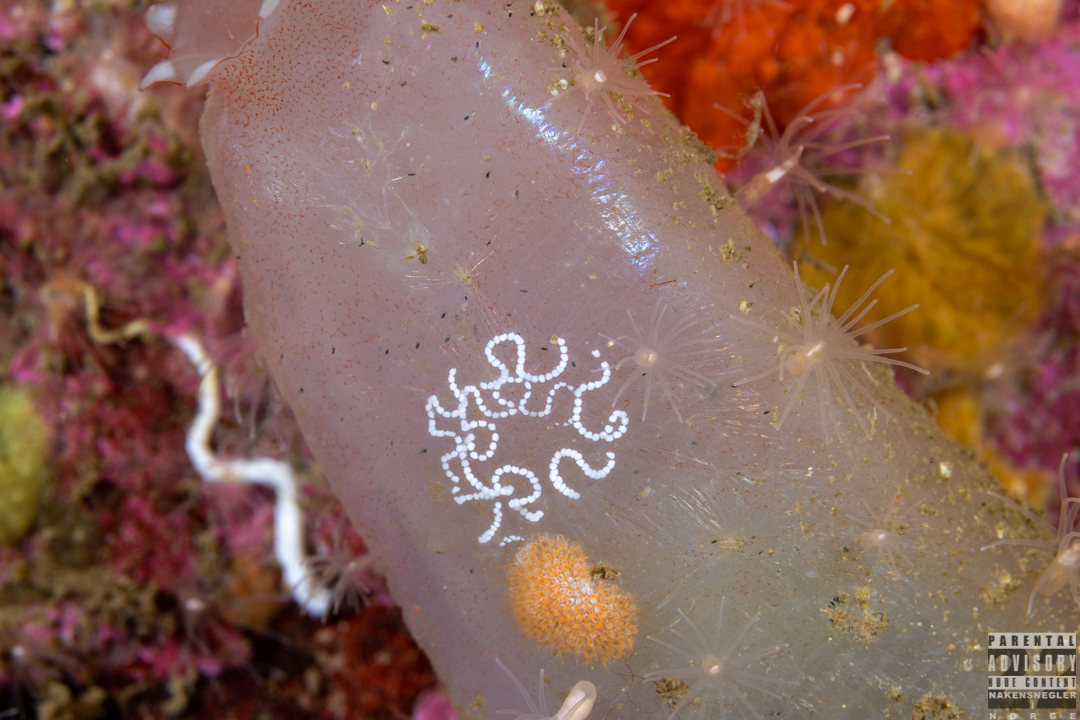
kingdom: Animalia
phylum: Mollusca
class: Gastropoda
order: Nudibranchia
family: Janolidae
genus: Antiopella
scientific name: Antiopella cristata
